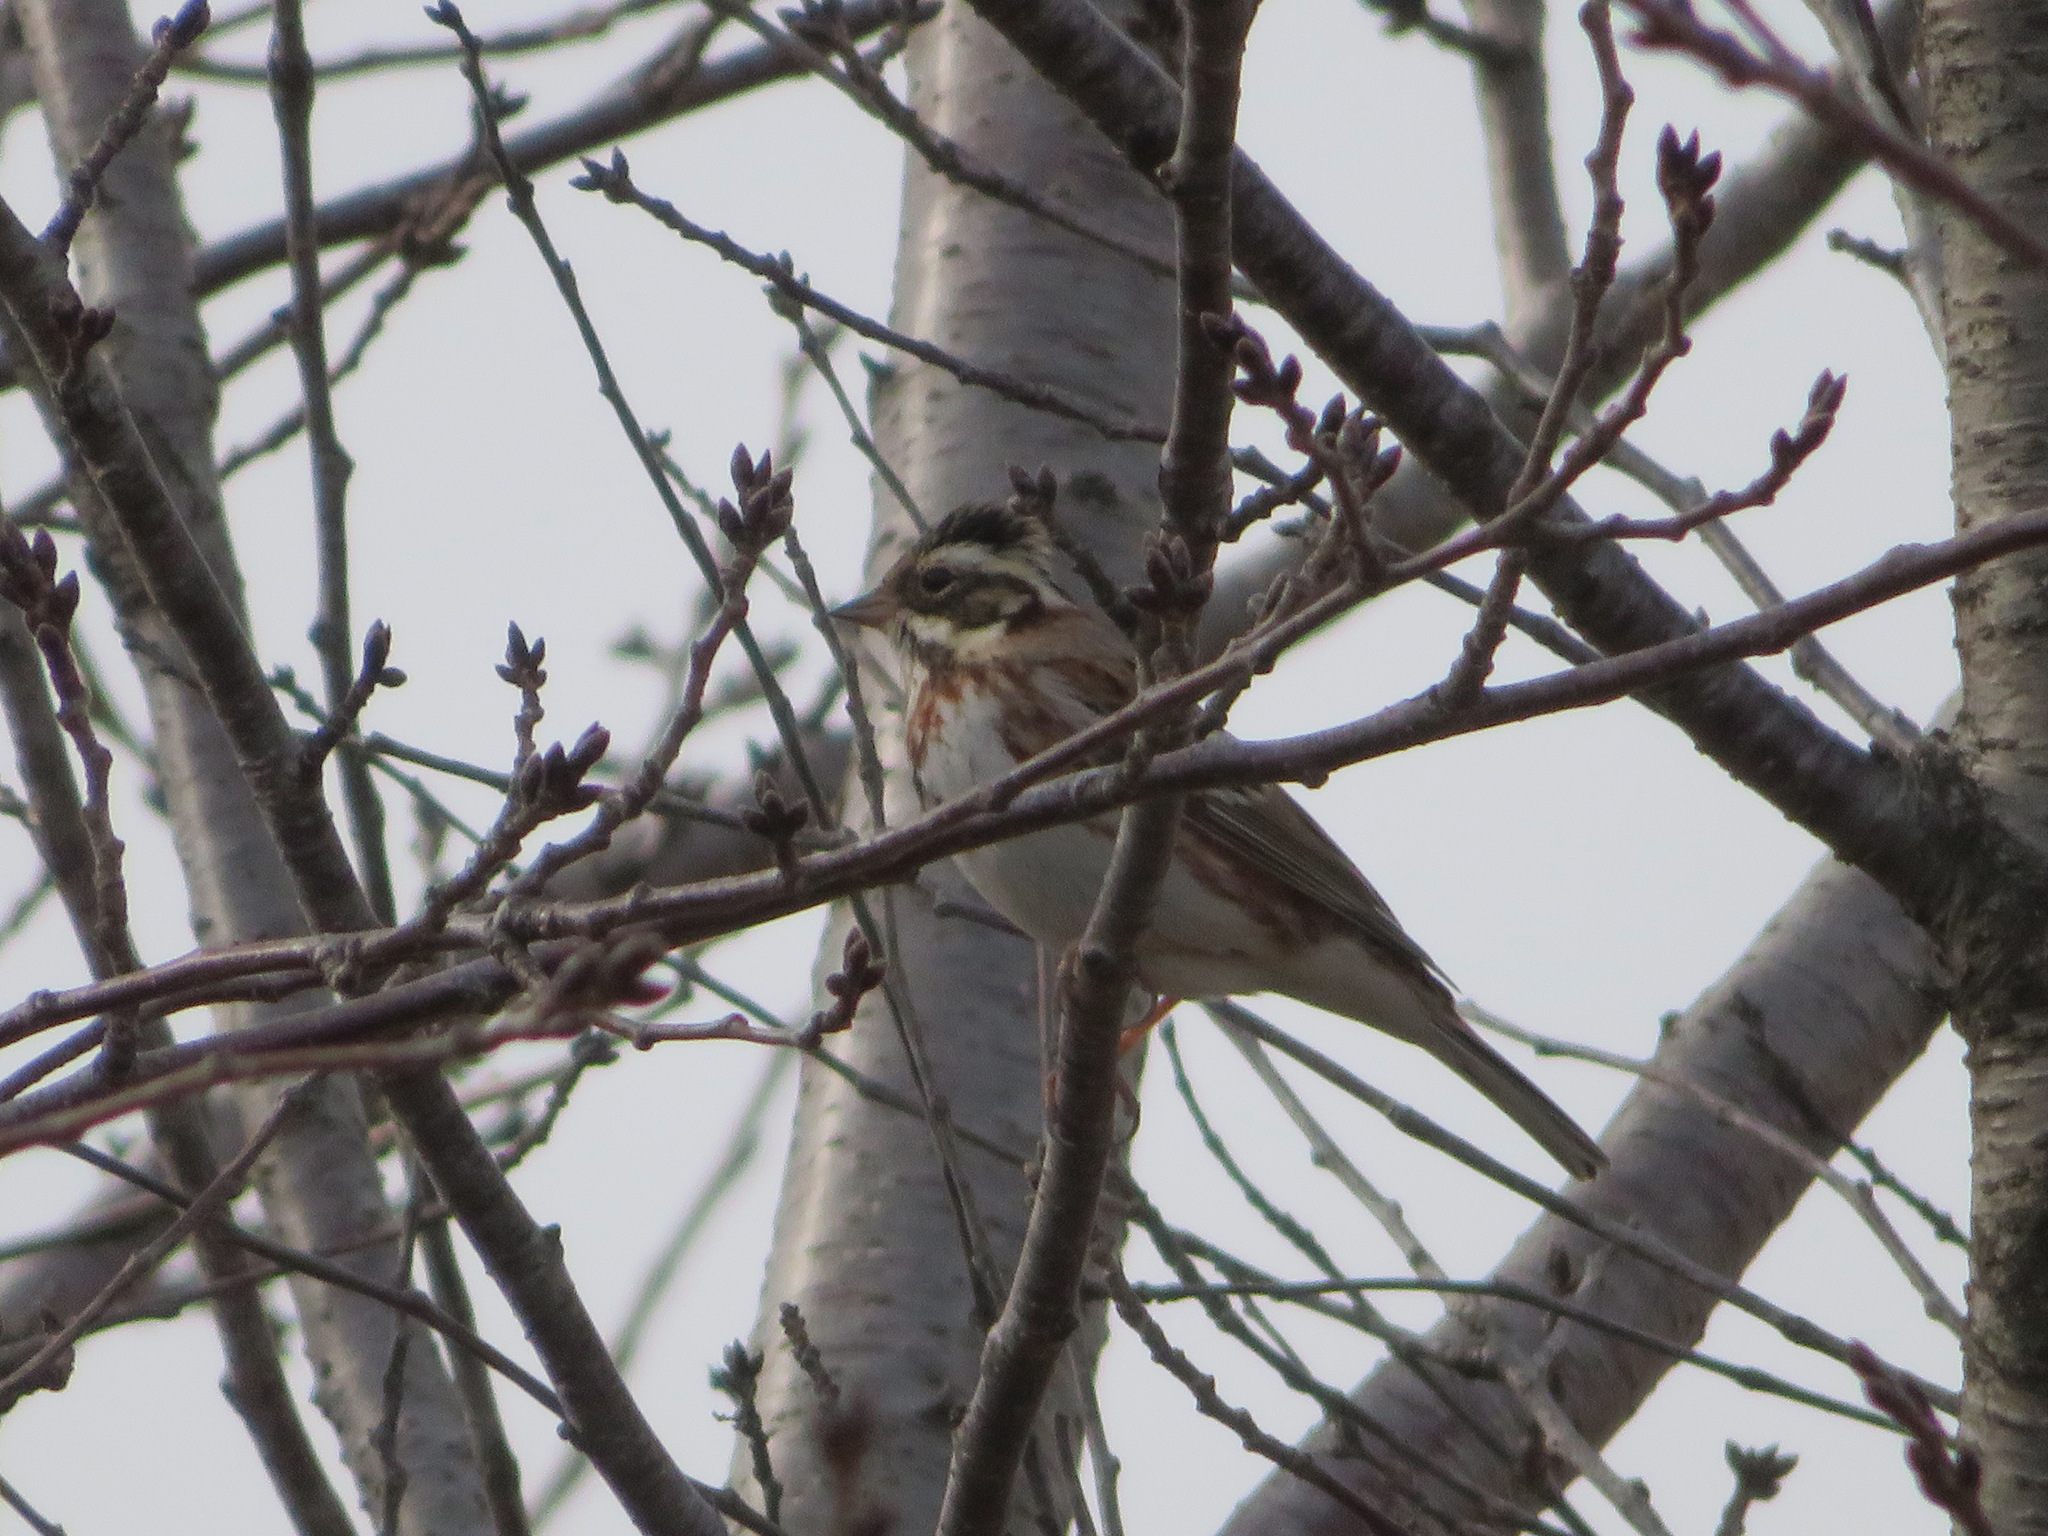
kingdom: Animalia
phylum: Chordata
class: Aves
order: Passeriformes
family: Emberizidae
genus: Emberiza
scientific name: Emberiza rustica
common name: Rustic bunting
